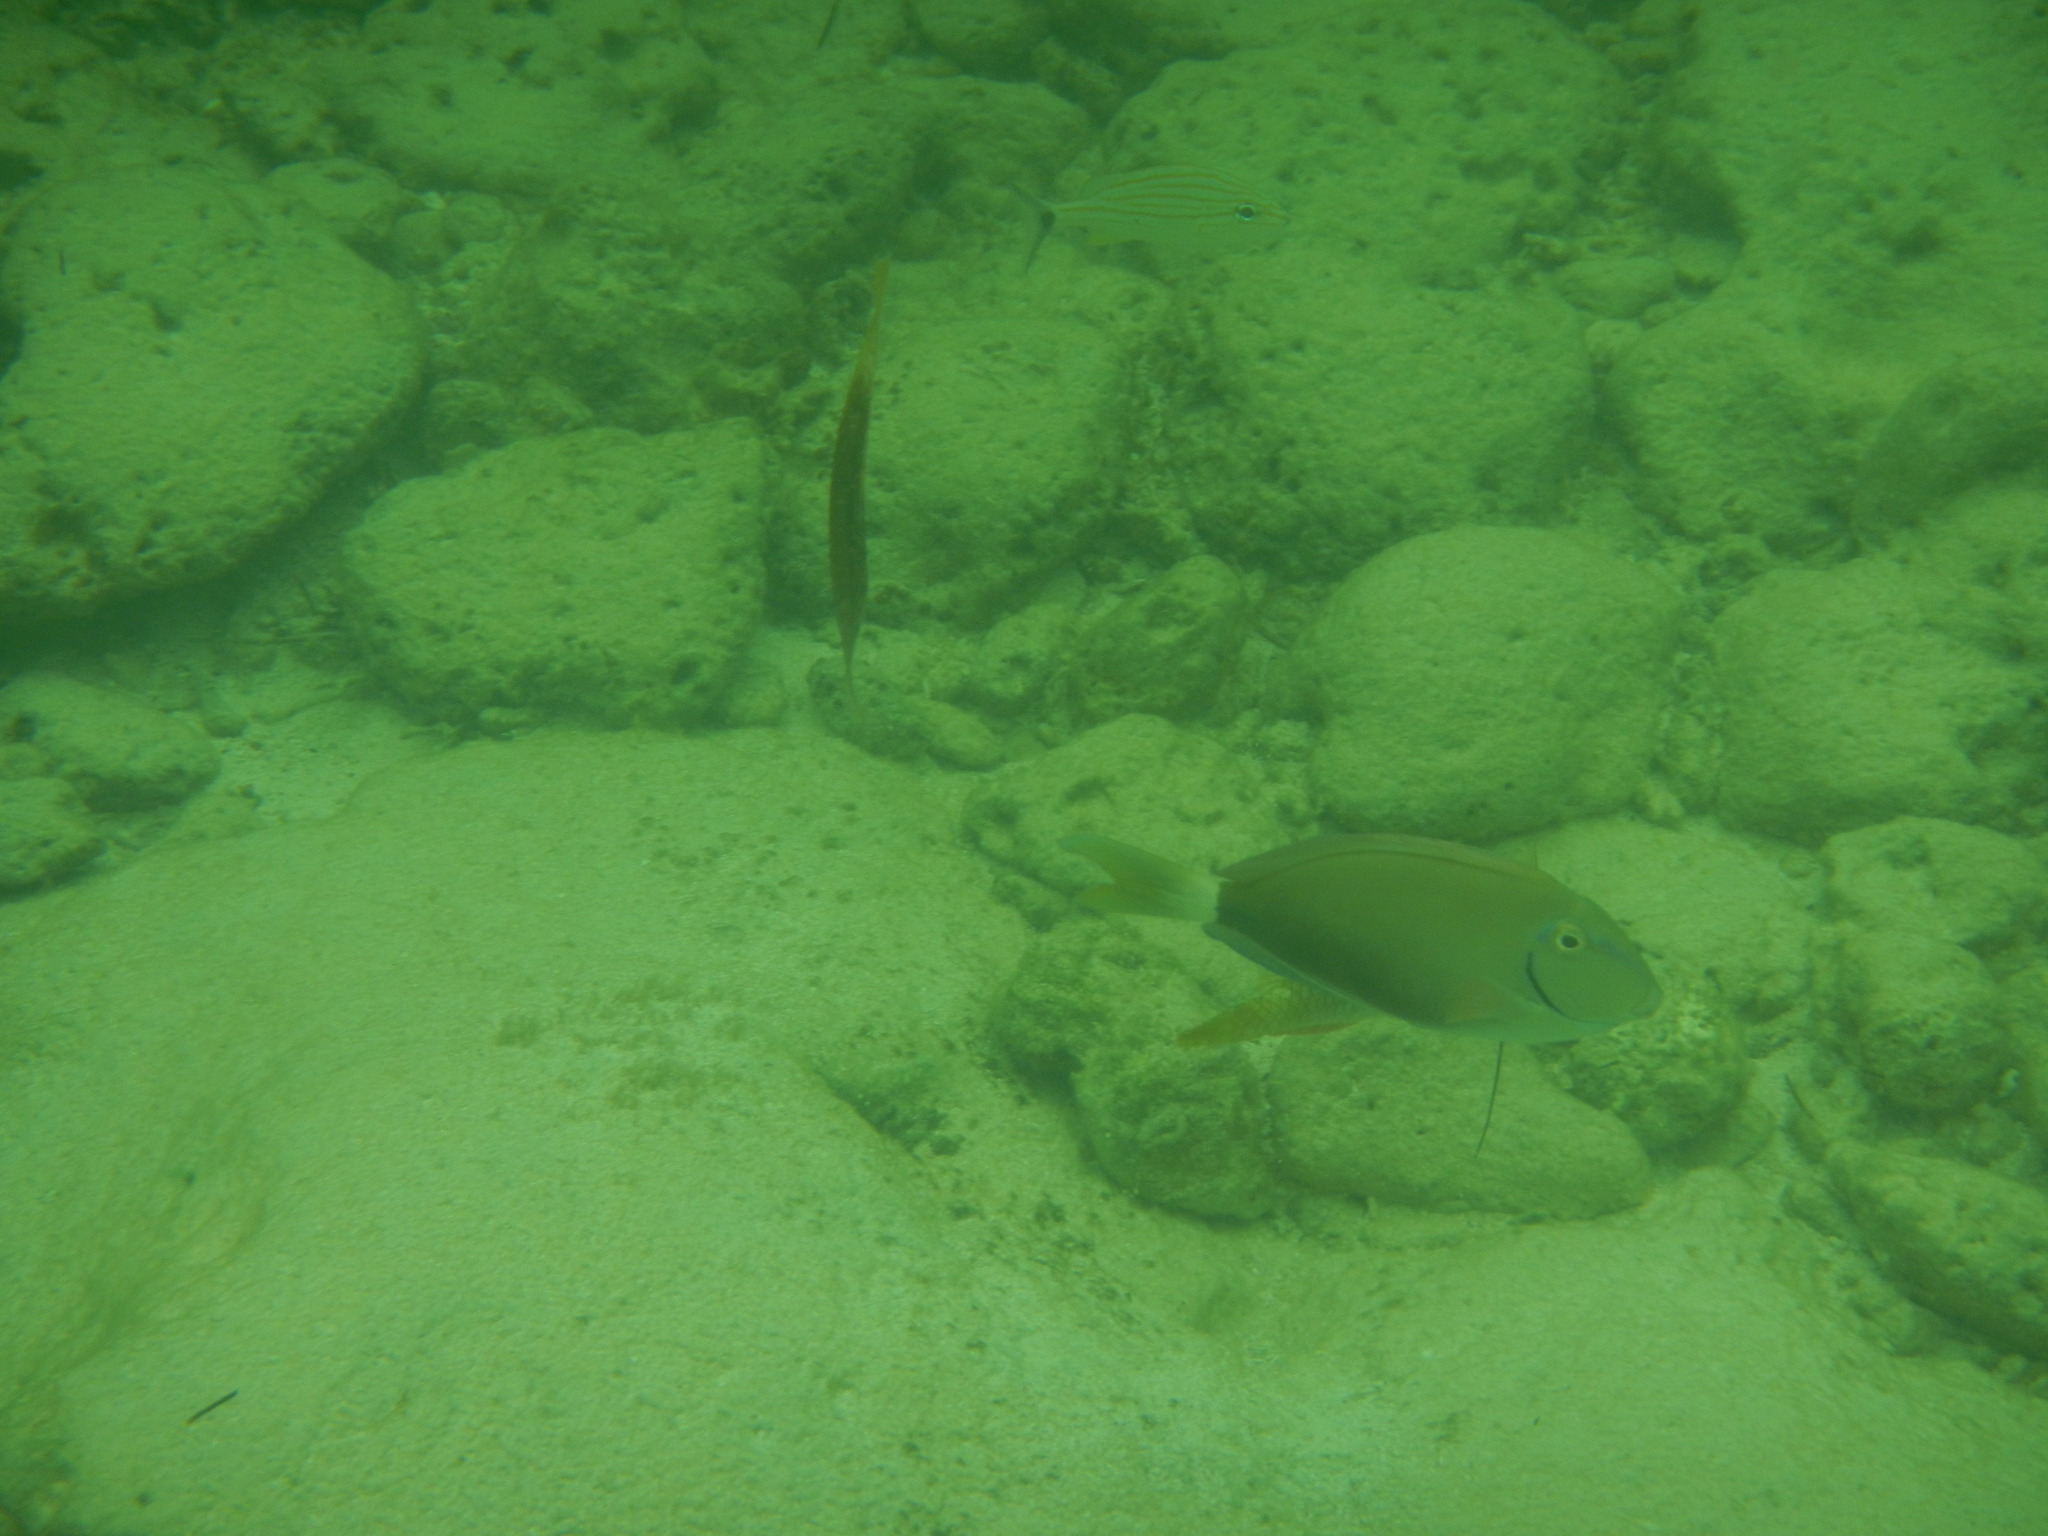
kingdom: Animalia
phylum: Chordata
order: Perciformes
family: Acanthuridae
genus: Acanthurus
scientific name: Acanthurus coeruleus
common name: Blue tang
